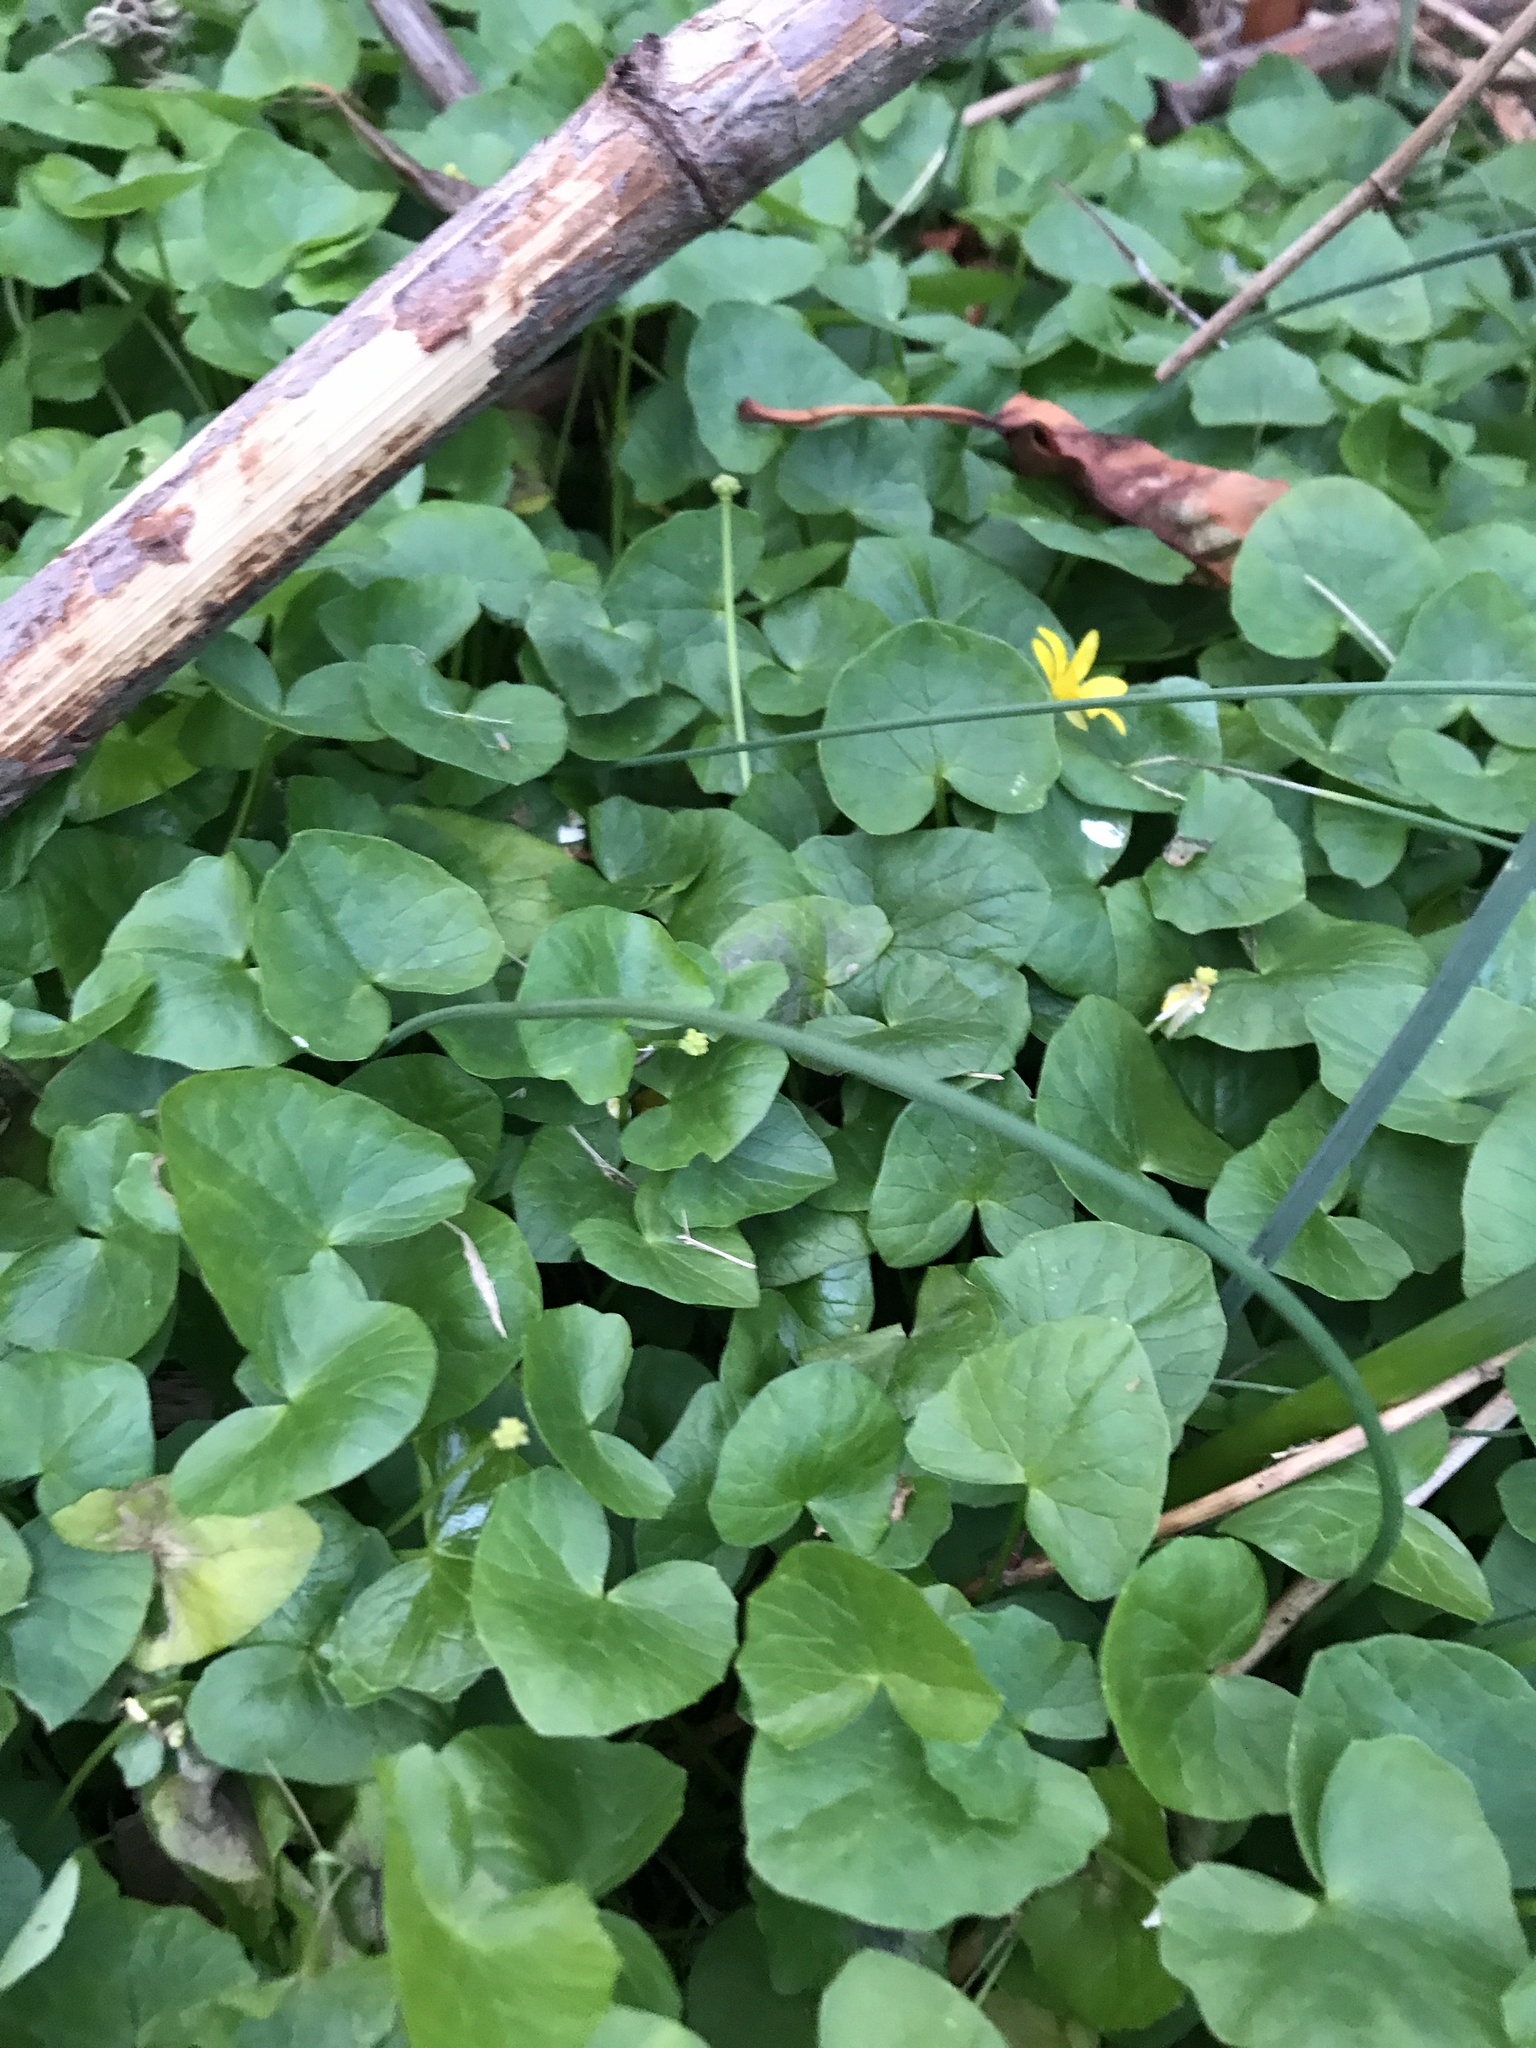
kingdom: Plantae
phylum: Tracheophyta
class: Magnoliopsida
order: Ranunculales
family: Ranunculaceae
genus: Ficaria
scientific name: Ficaria verna
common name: Lesser celandine
